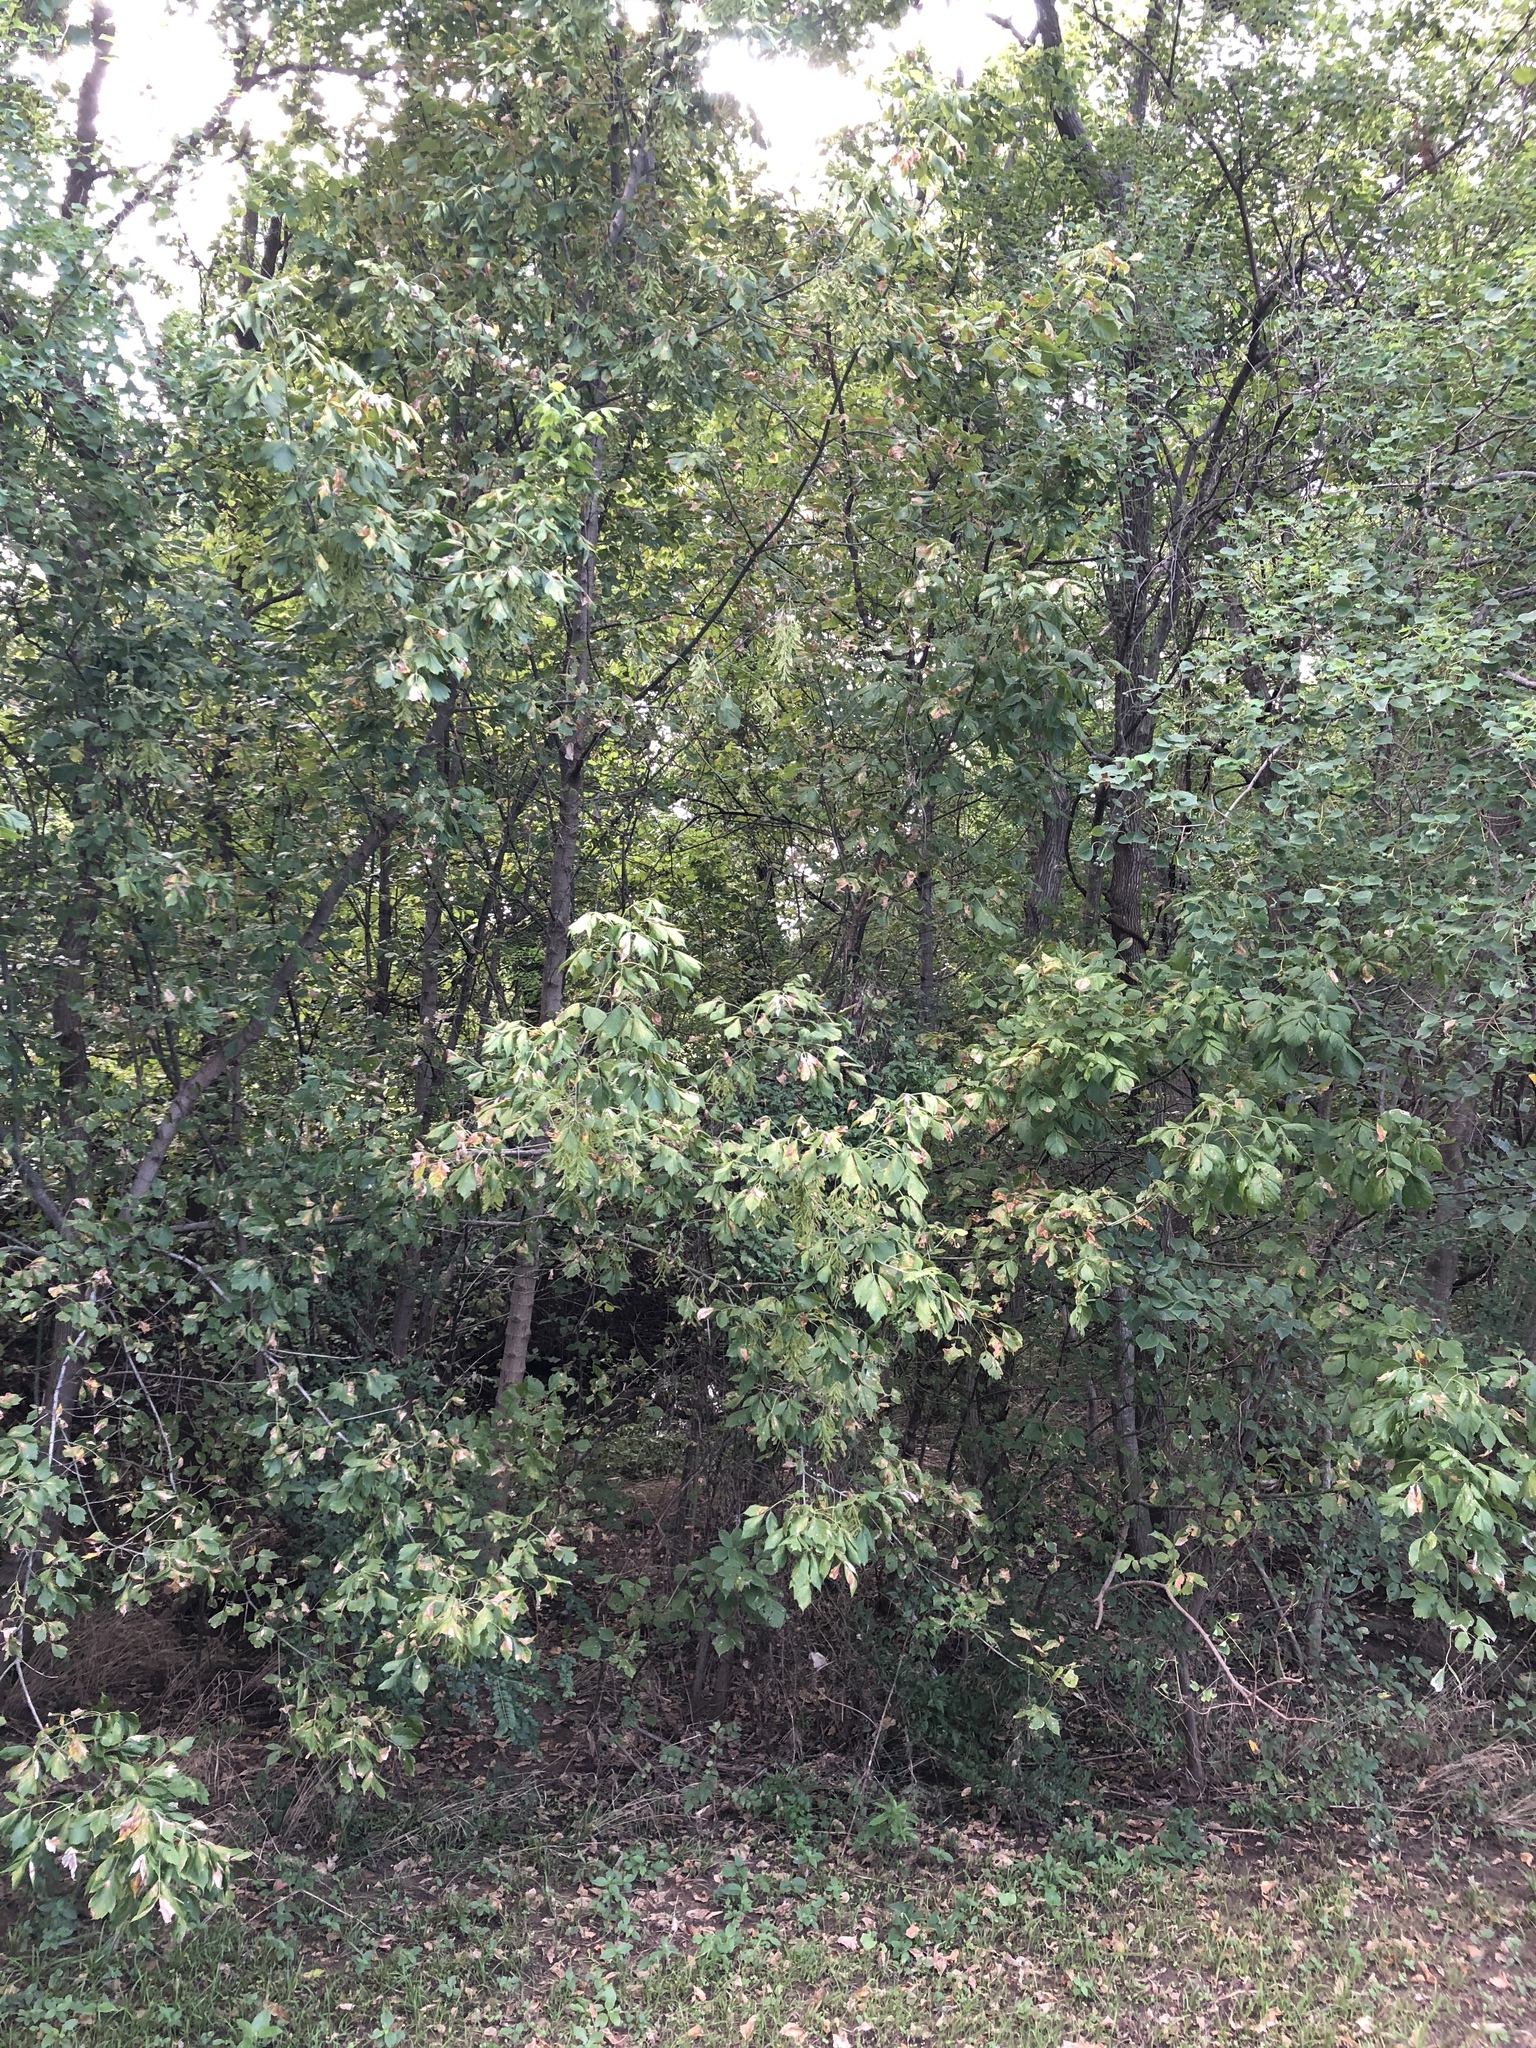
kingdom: Plantae
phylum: Tracheophyta
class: Magnoliopsida
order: Sapindales
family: Sapindaceae
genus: Acer
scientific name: Acer negundo
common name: Ashleaf maple
